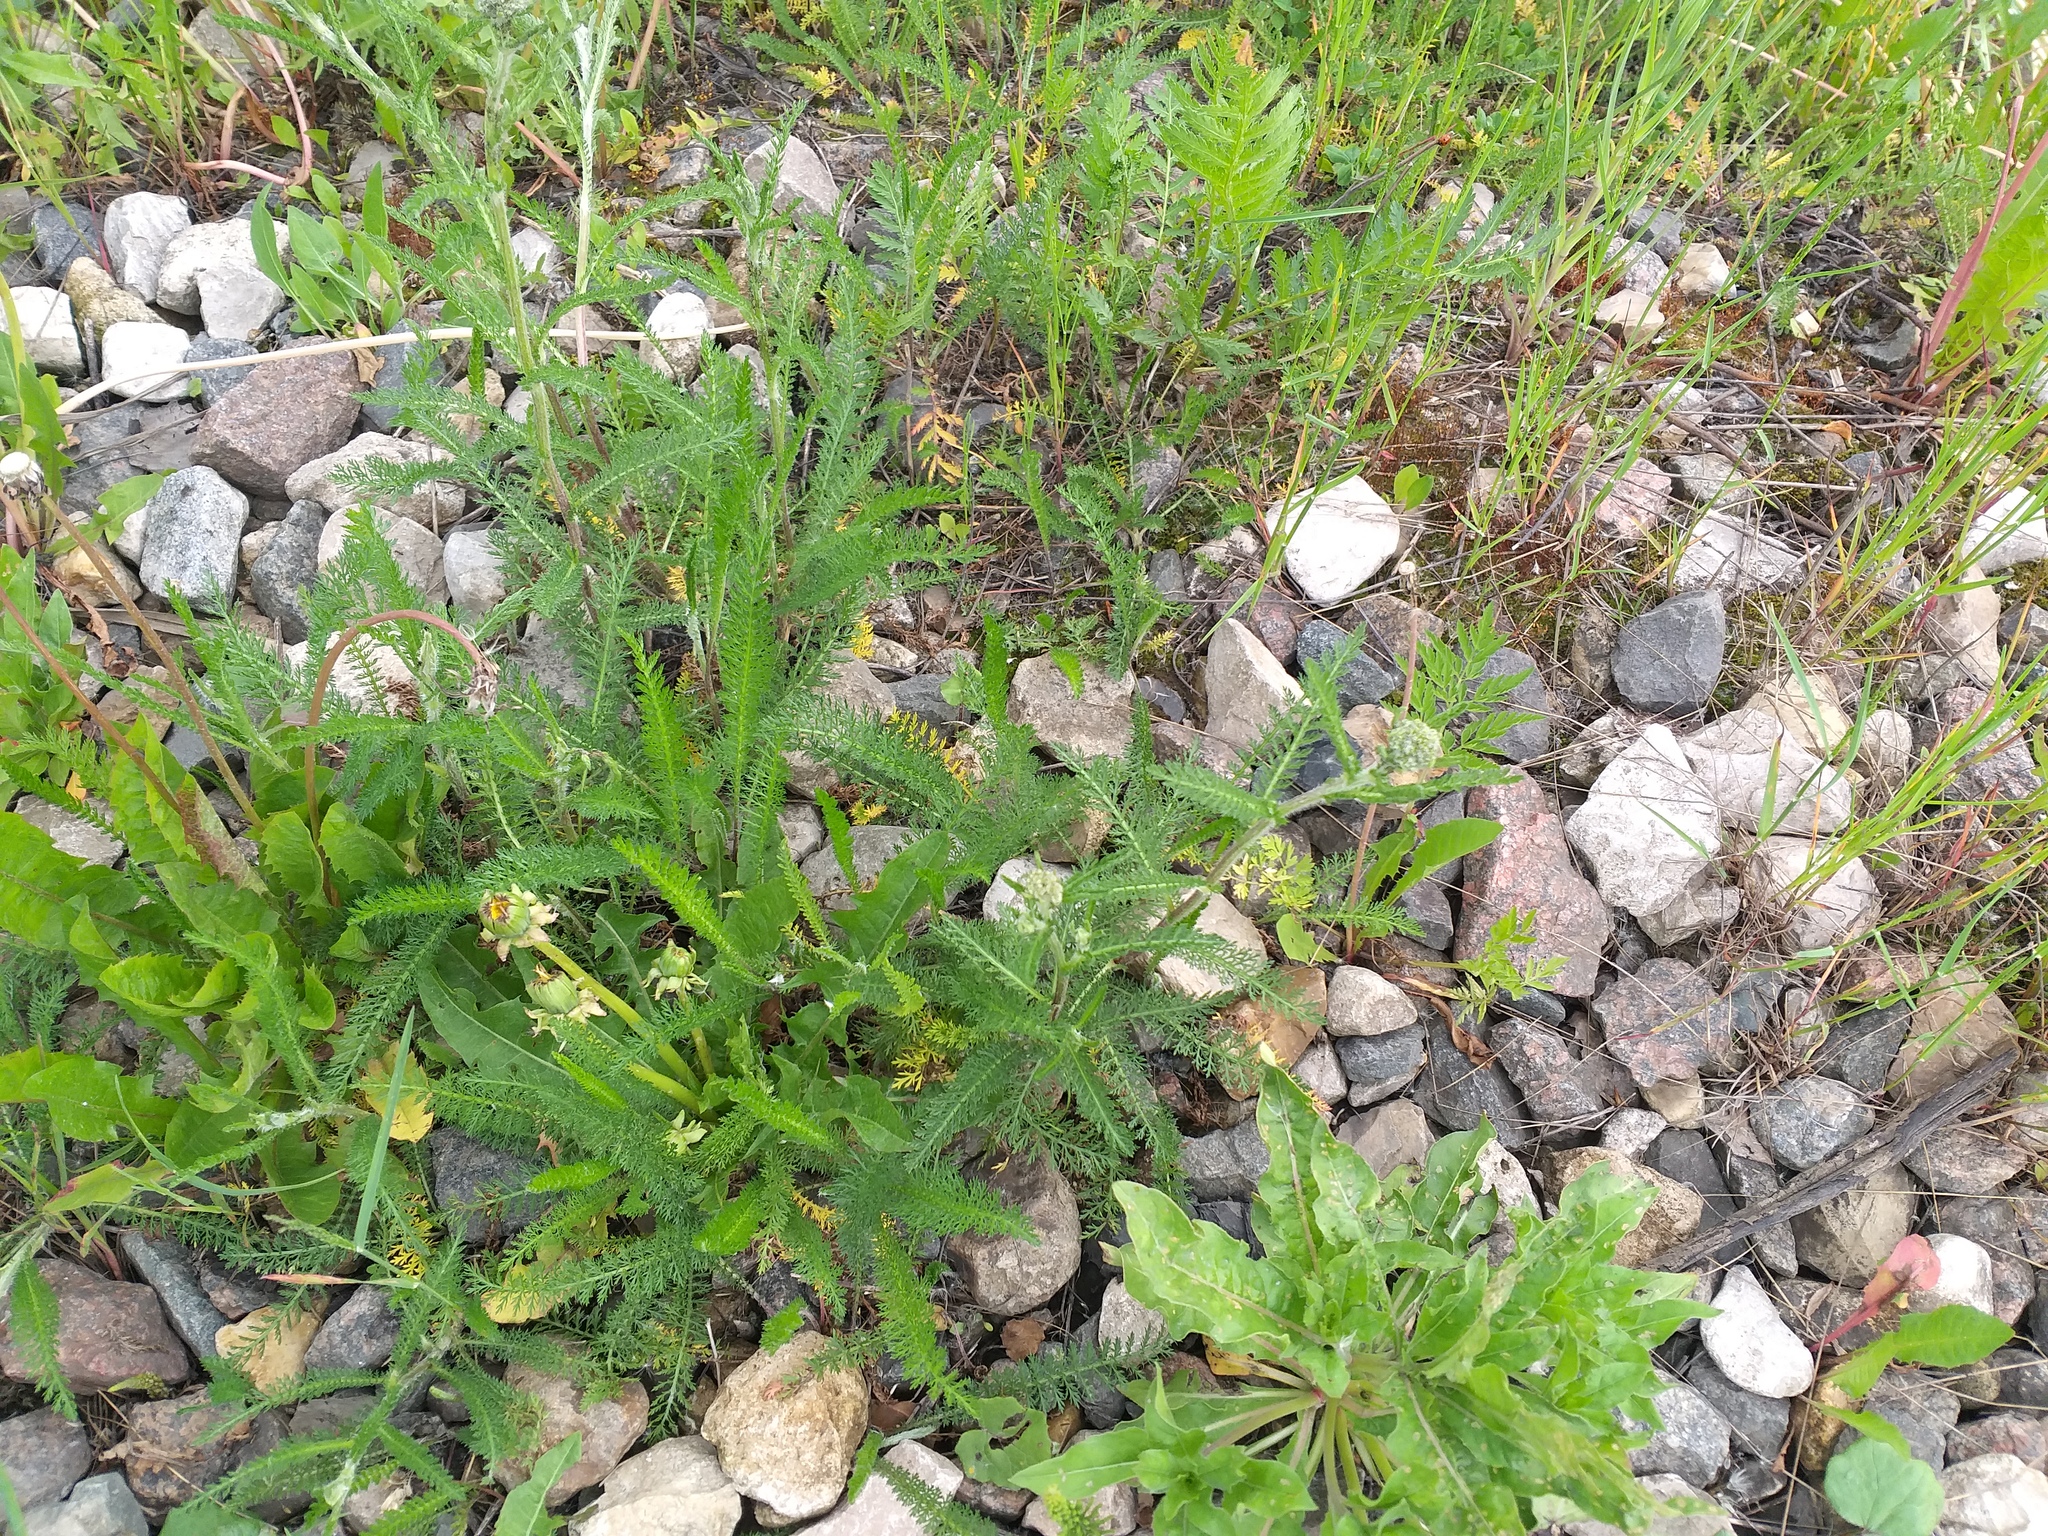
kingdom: Plantae
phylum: Tracheophyta
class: Magnoliopsida
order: Asterales
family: Asteraceae
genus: Achillea
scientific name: Achillea millefolium
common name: Yarrow
